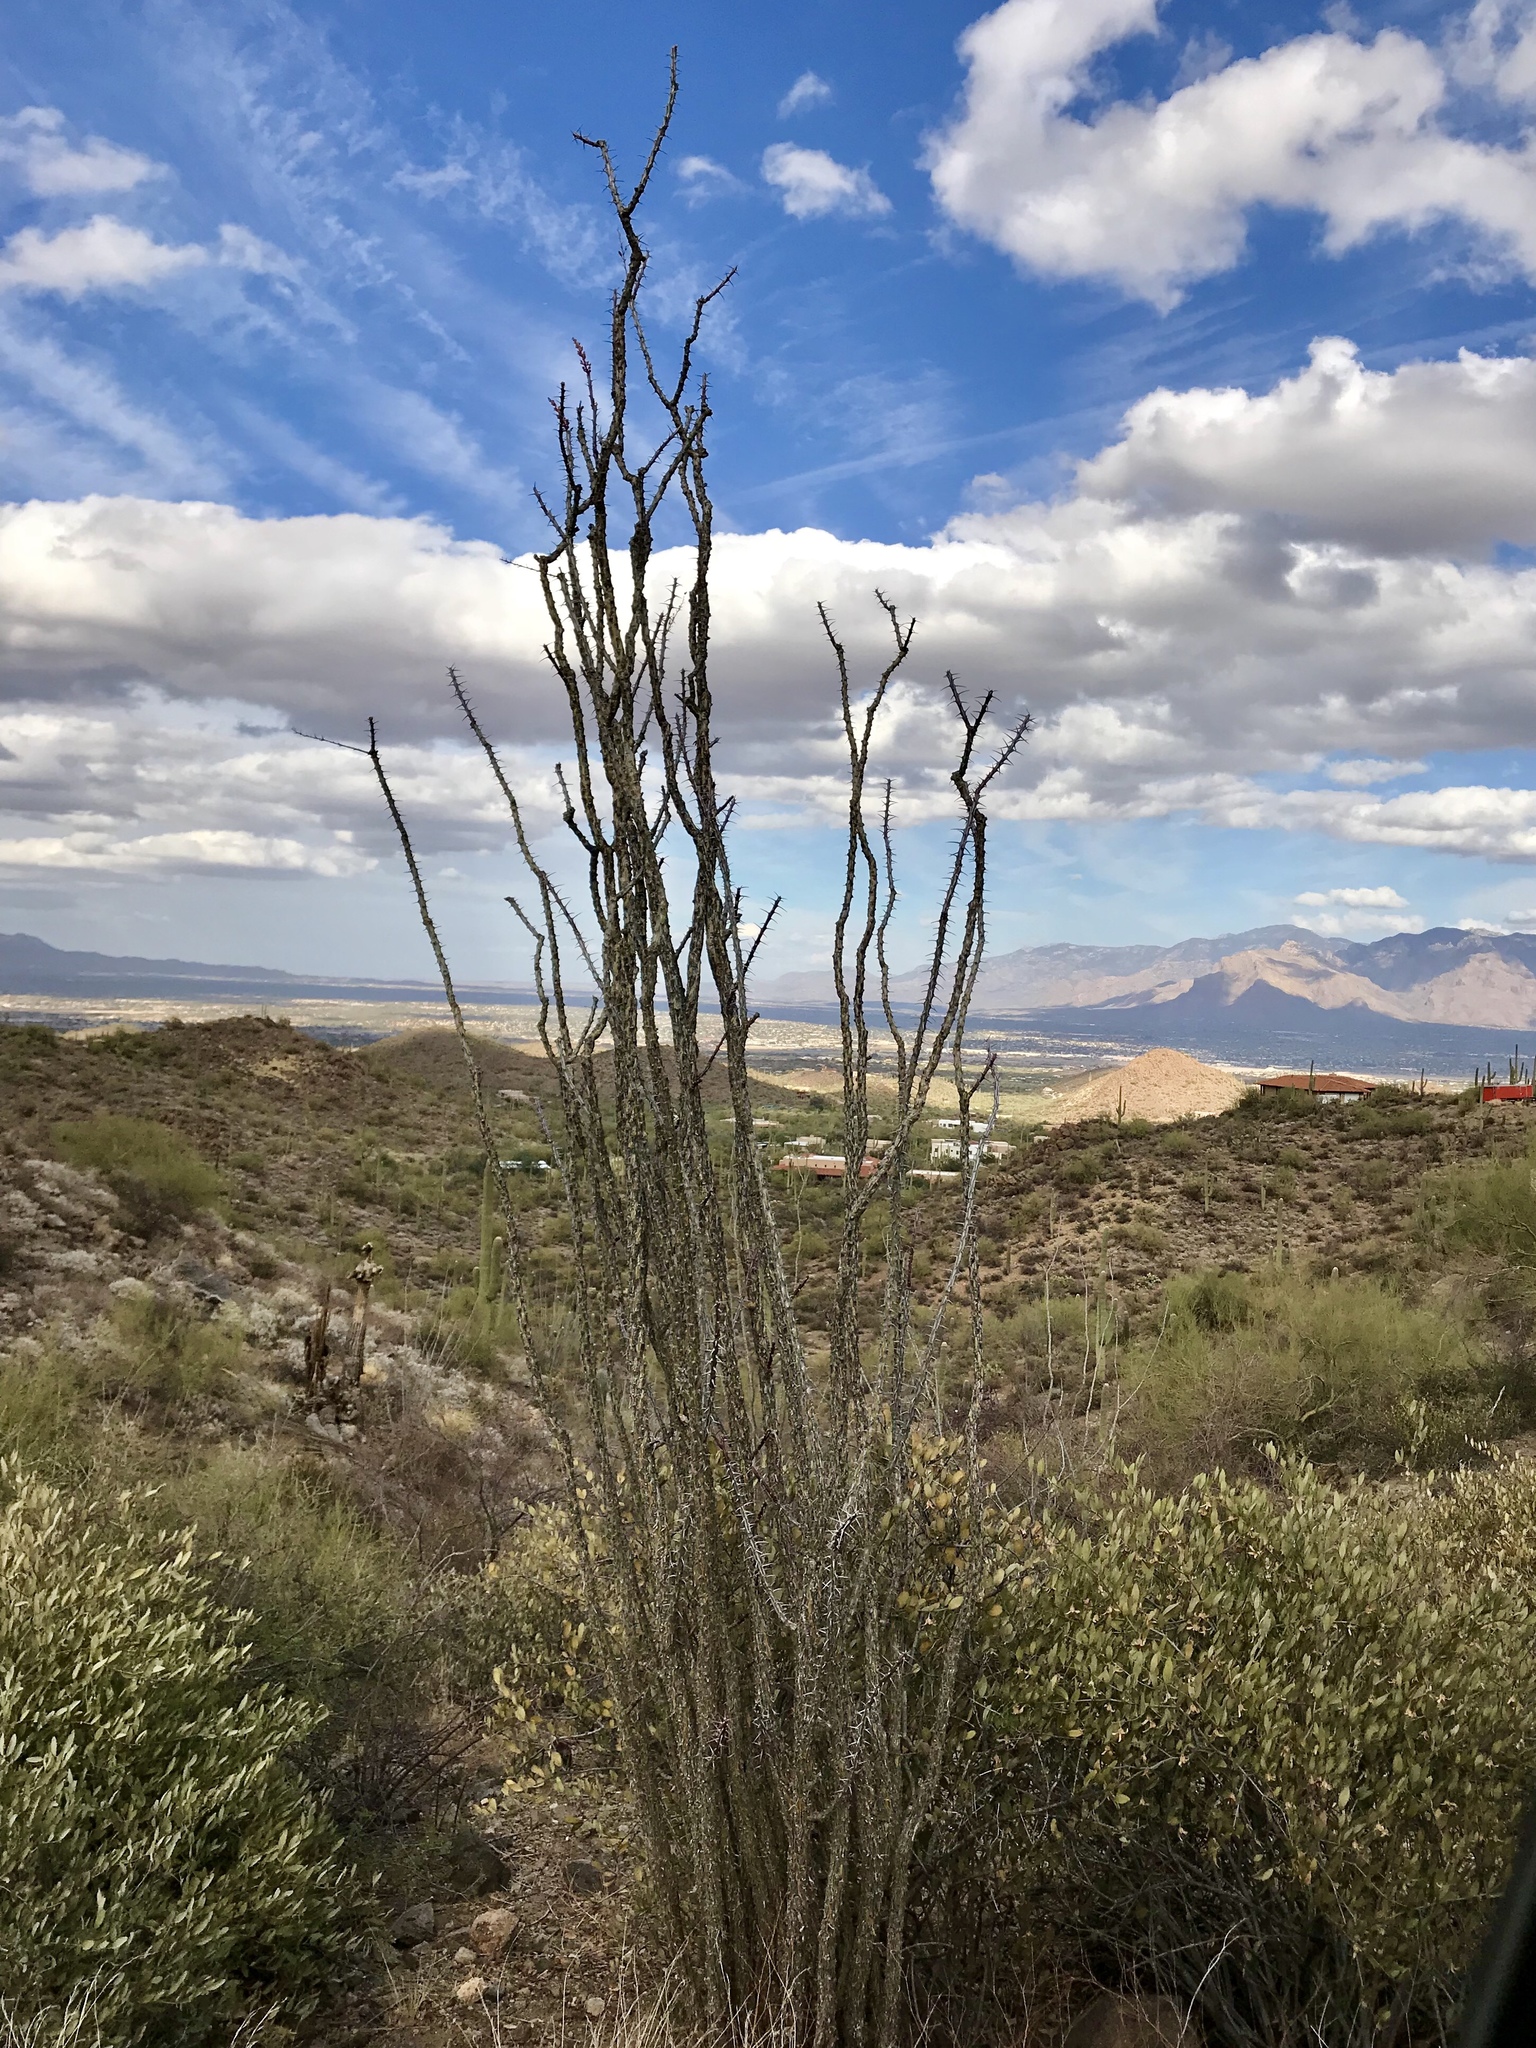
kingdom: Plantae
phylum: Tracheophyta
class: Magnoliopsida
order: Ericales
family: Fouquieriaceae
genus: Fouquieria
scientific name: Fouquieria splendens
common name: Vine-cactus
